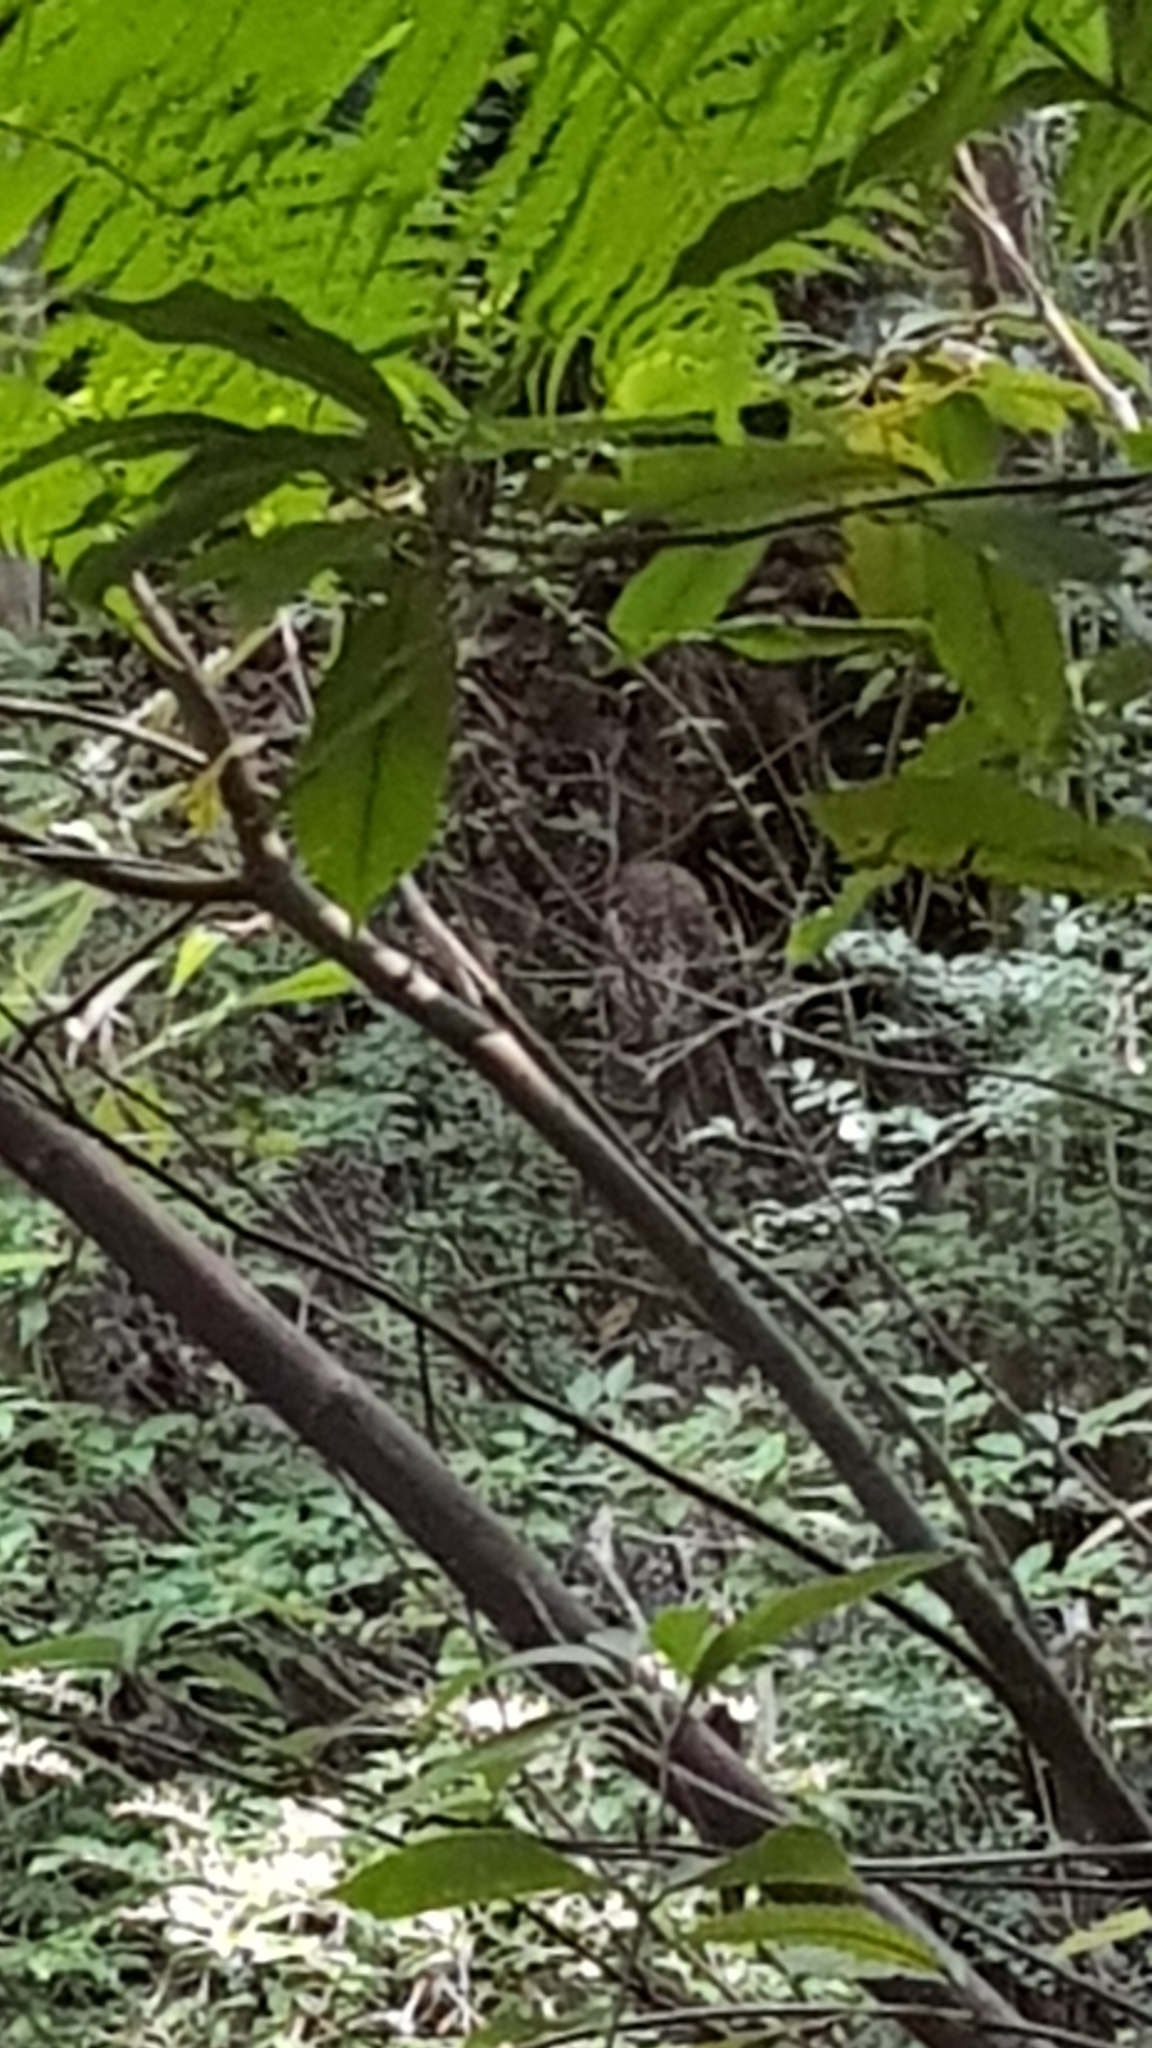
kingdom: Animalia
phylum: Chordata
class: Aves
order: Strigiformes
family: Strigidae
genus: Ninox
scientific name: Ninox boobook
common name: Southern boobook
